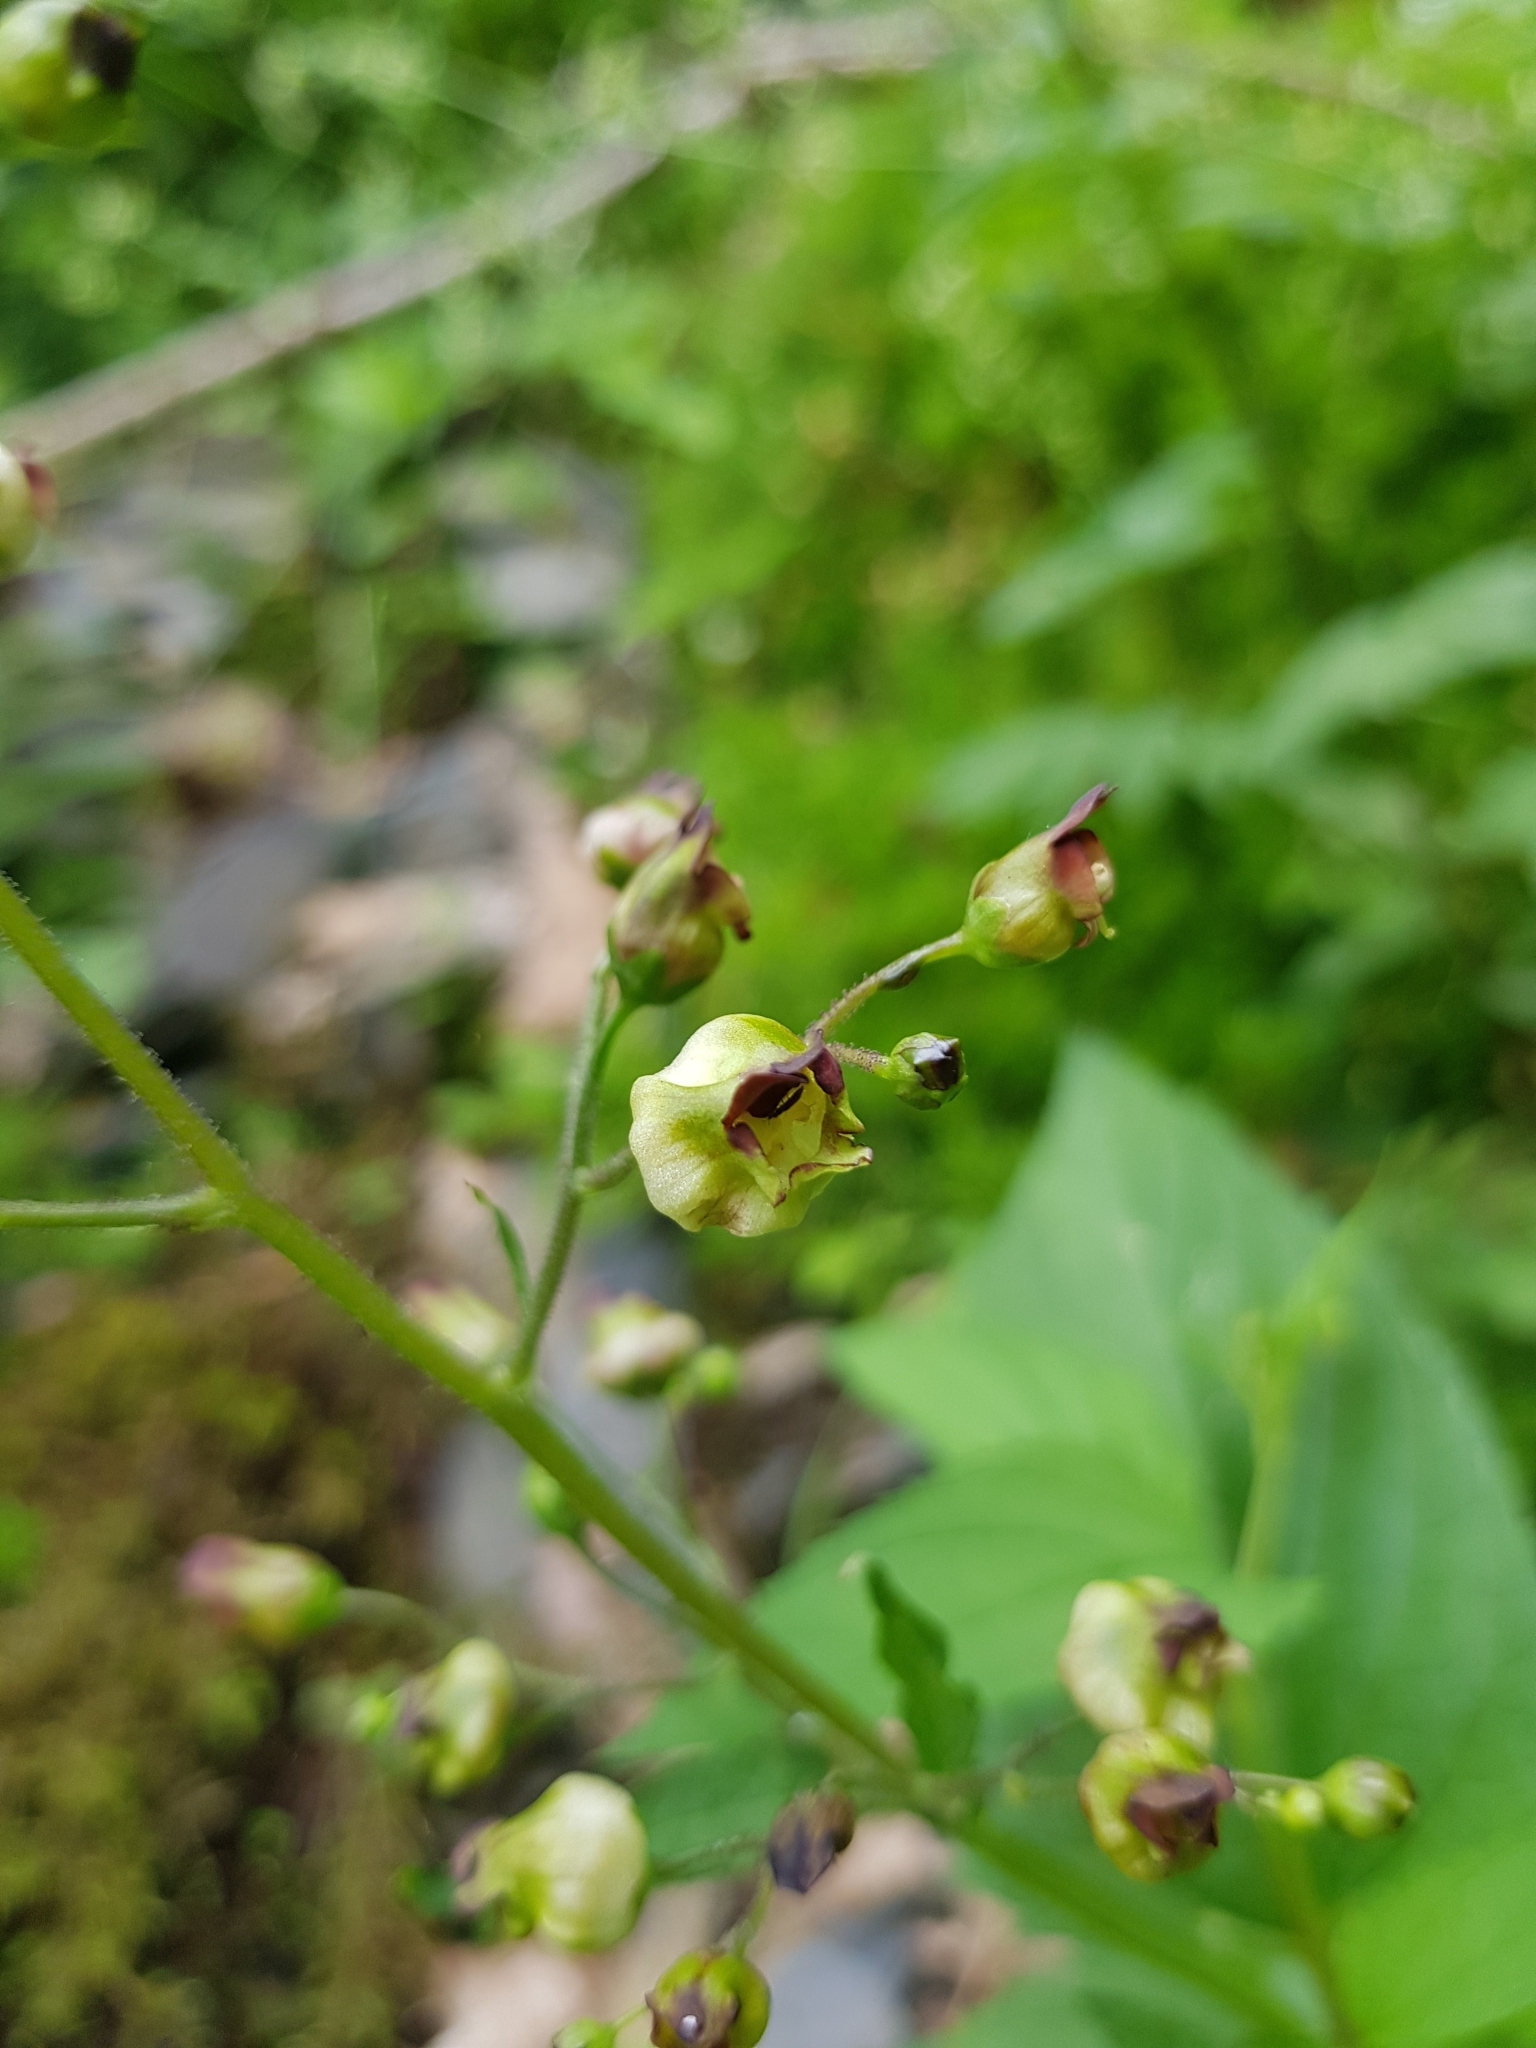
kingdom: Plantae
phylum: Tracheophyta
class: Magnoliopsida
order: Lamiales
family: Scrophulariaceae
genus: Scrophularia
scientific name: Scrophularia nodosa
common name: Common figwort
